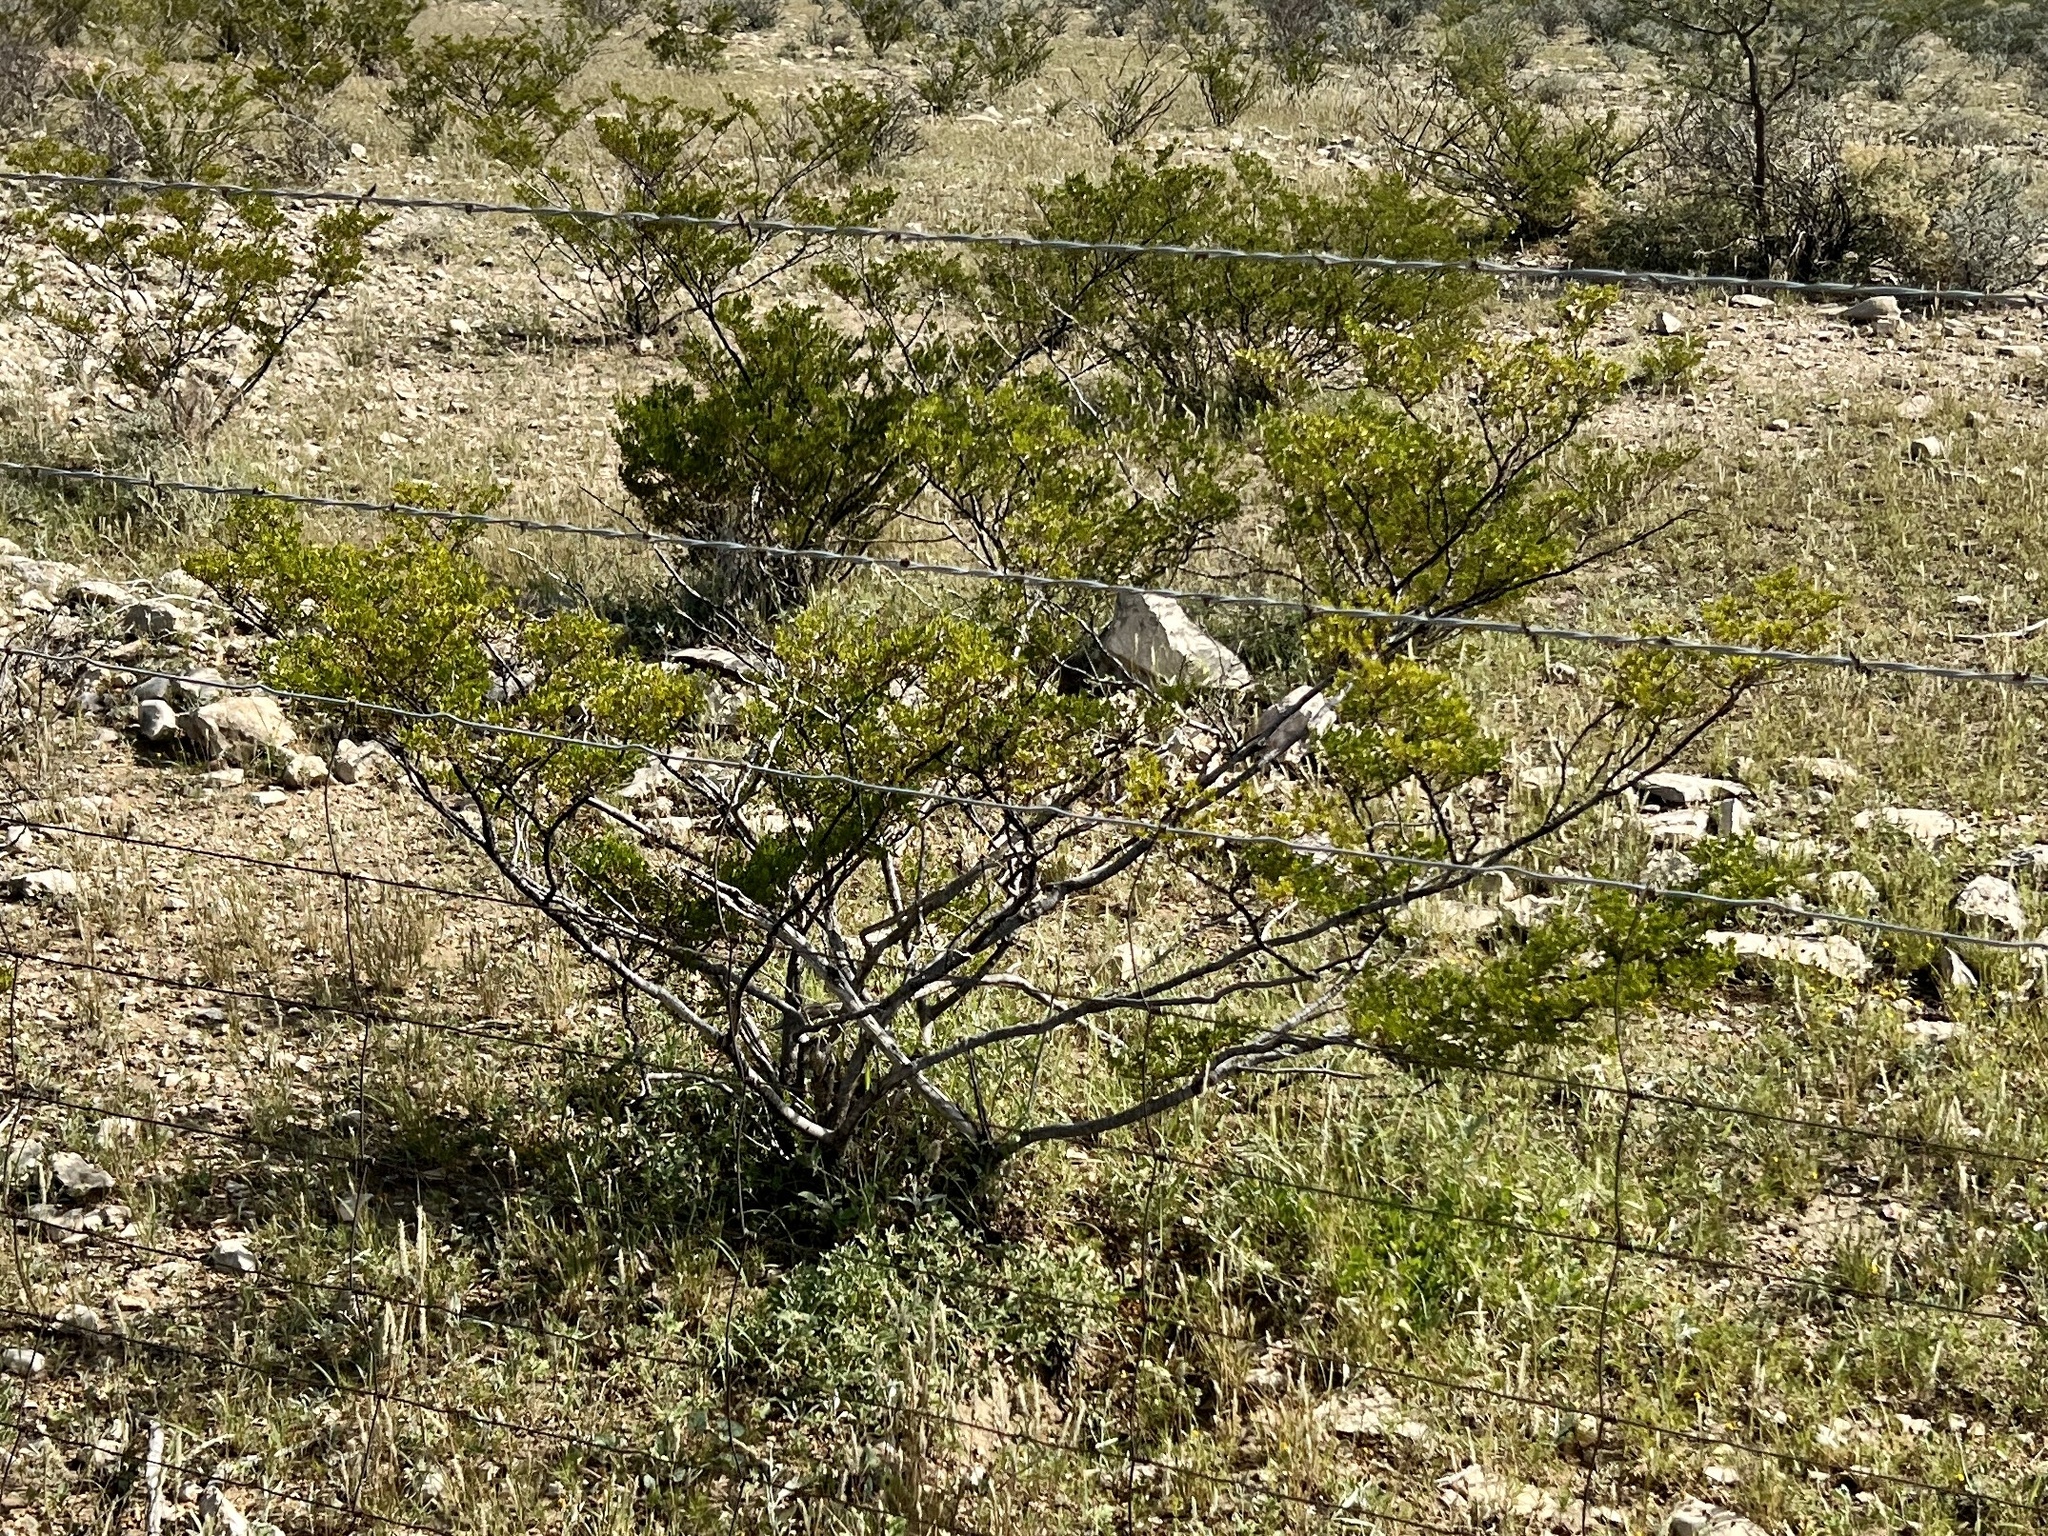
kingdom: Plantae
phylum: Tracheophyta
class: Magnoliopsida
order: Zygophyllales
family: Zygophyllaceae
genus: Larrea
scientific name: Larrea tridentata
